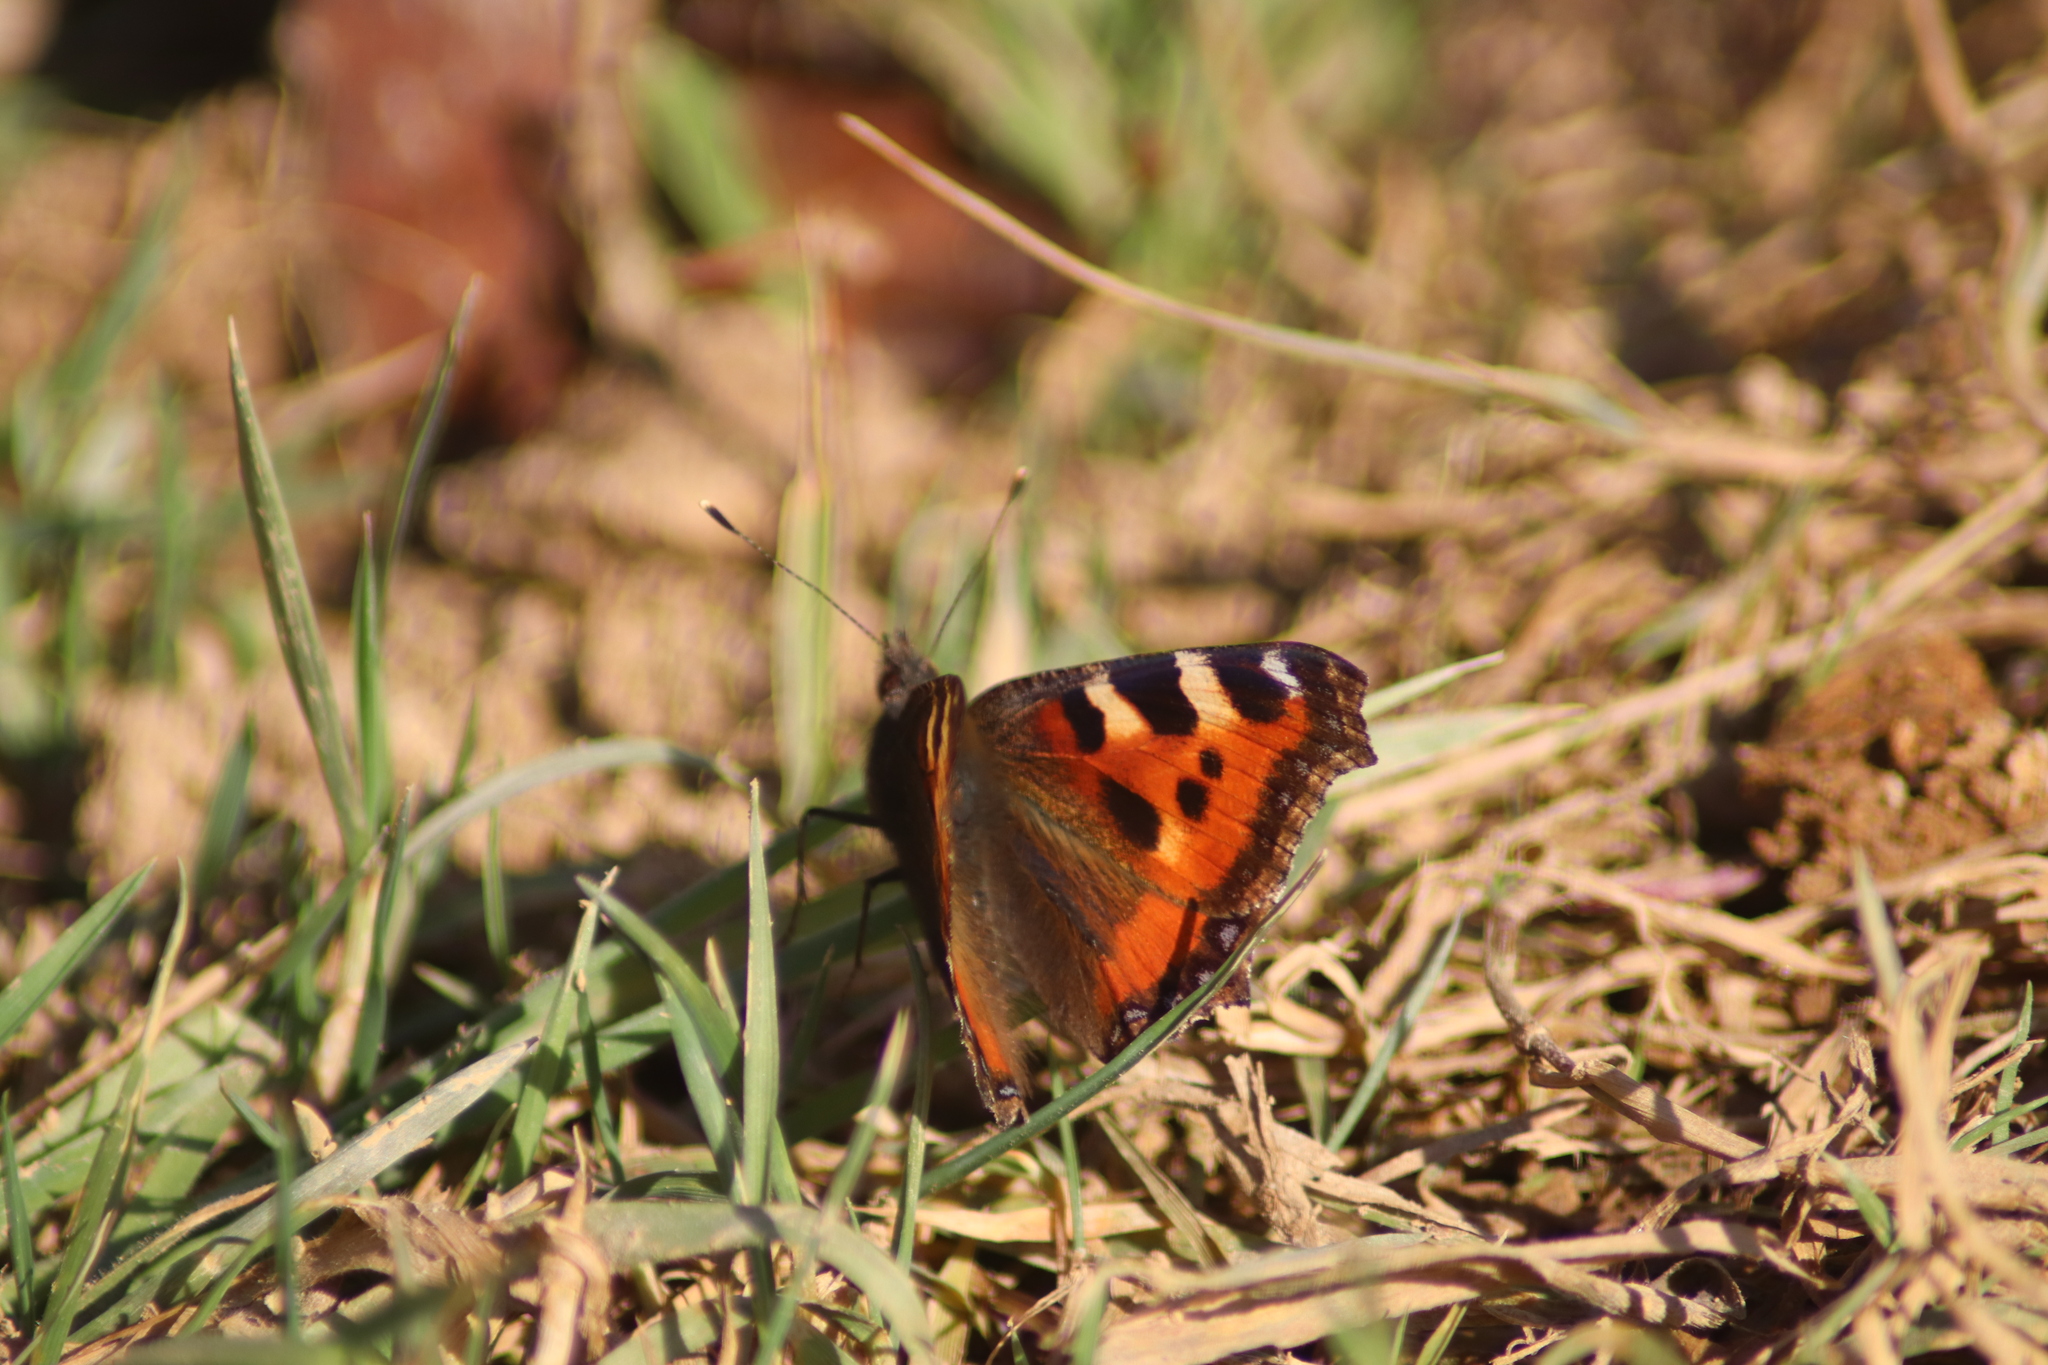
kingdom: Animalia
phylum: Arthropoda
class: Insecta
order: Lepidoptera
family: Nymphalidae
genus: Aglais
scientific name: Aglais urticae
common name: Small tortoiseshell
